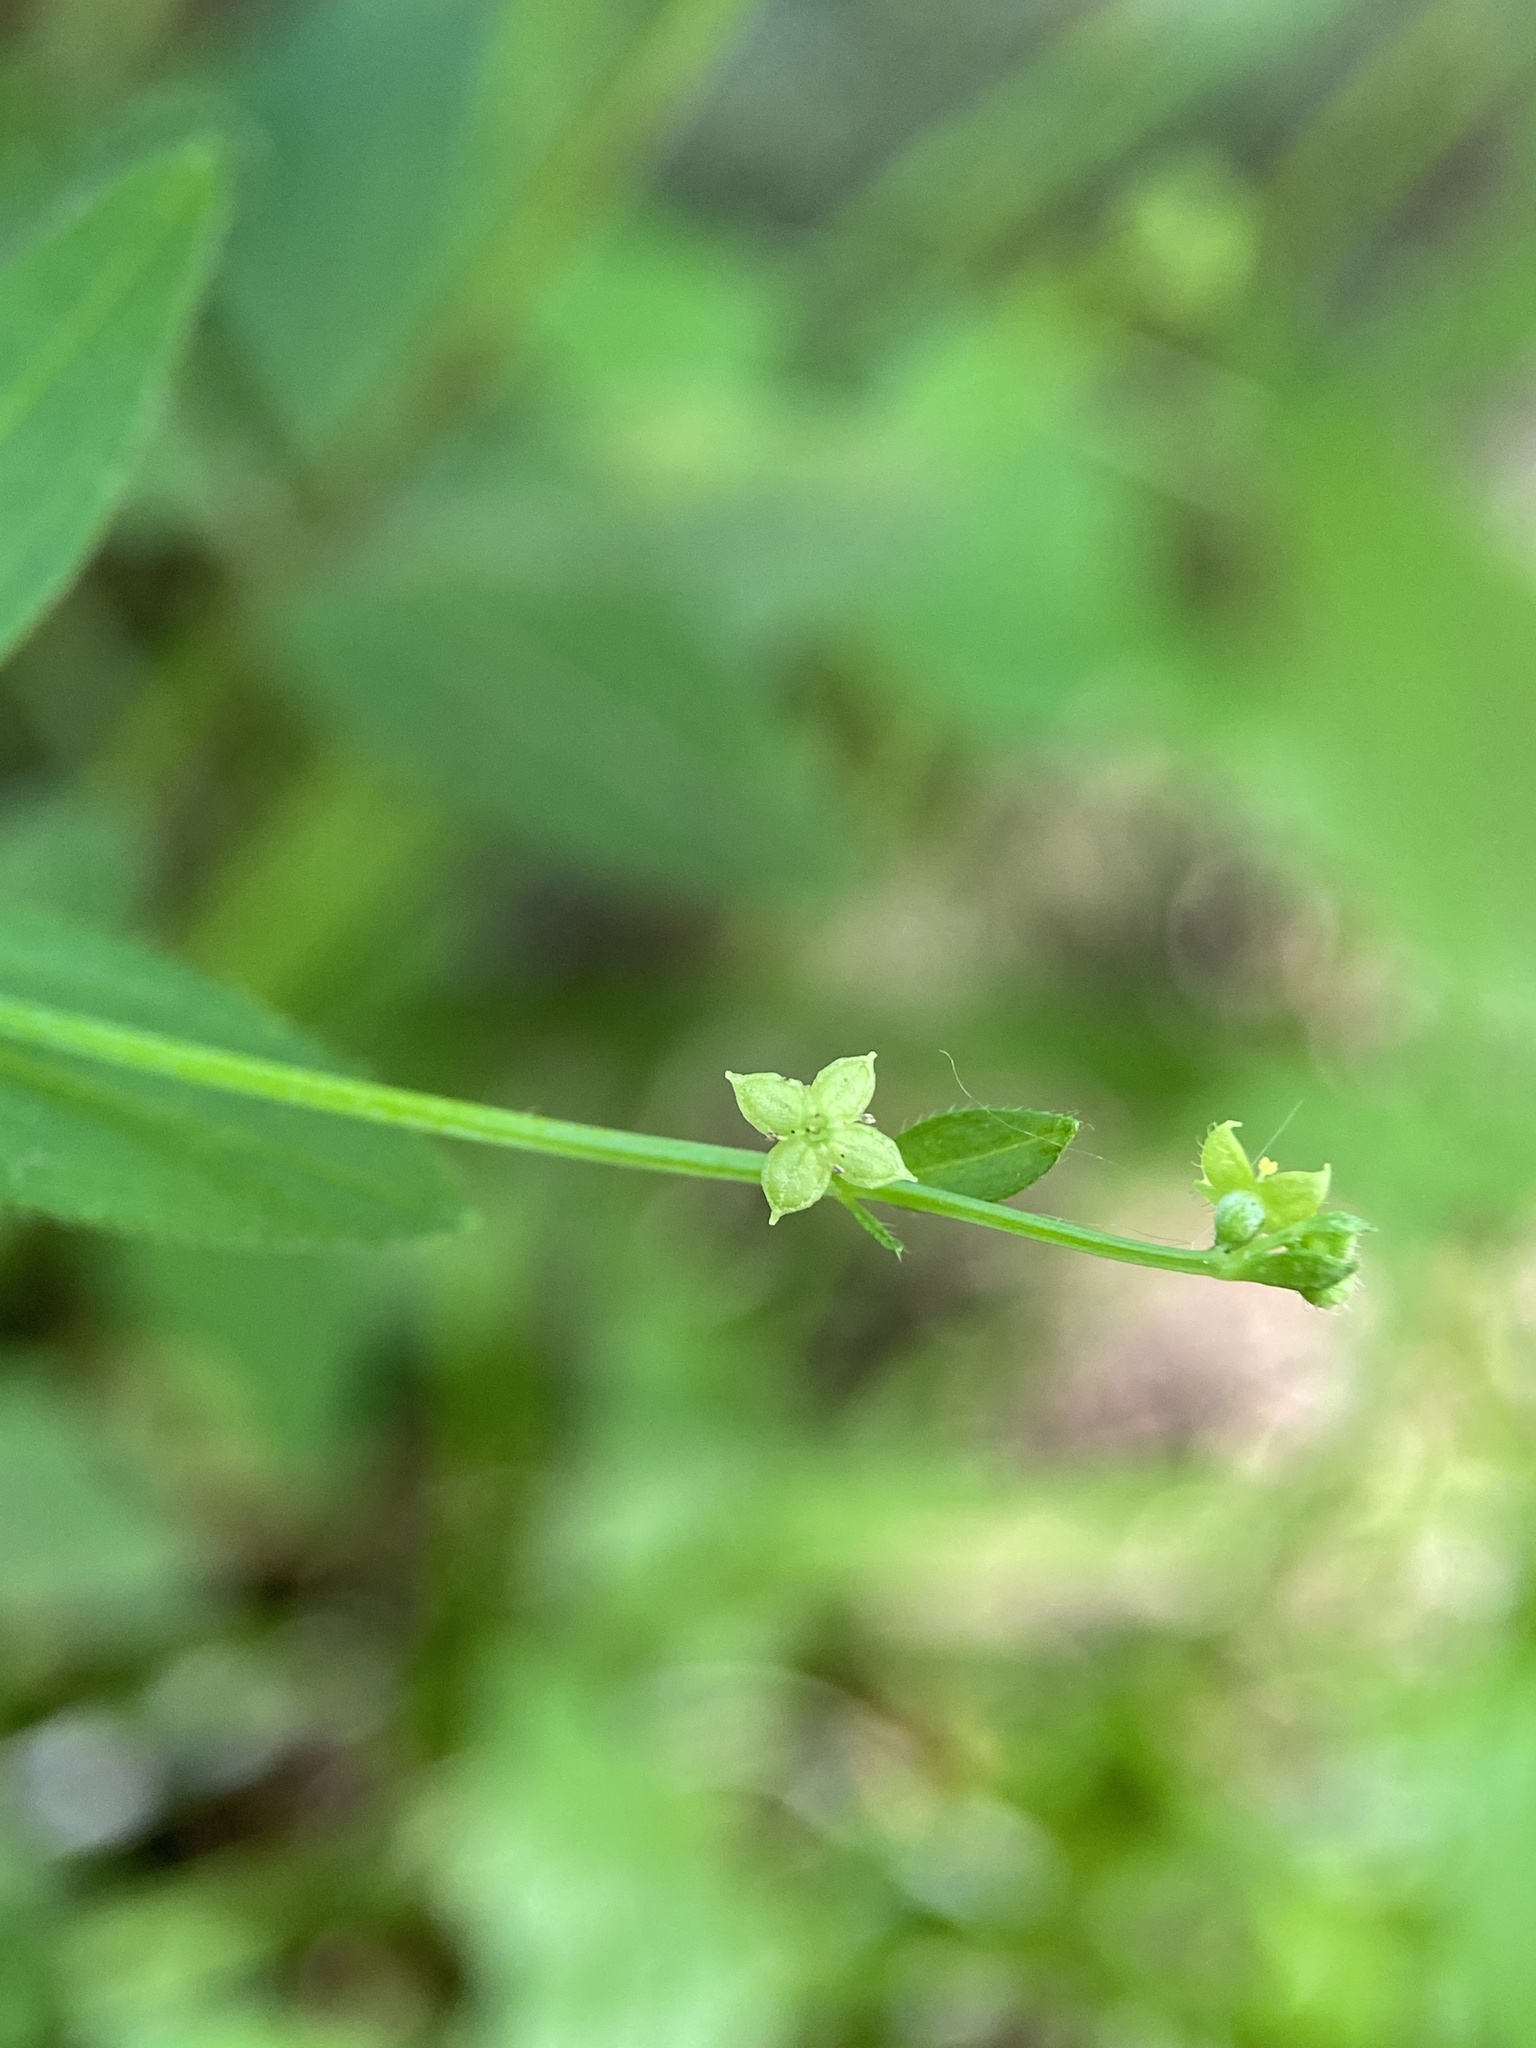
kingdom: Plantae
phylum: Tracheophyta
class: Magnoliopsida
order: Gentianales
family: Rubiaceae
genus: Galium
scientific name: Galium circaezans
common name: Forest bedstraw
